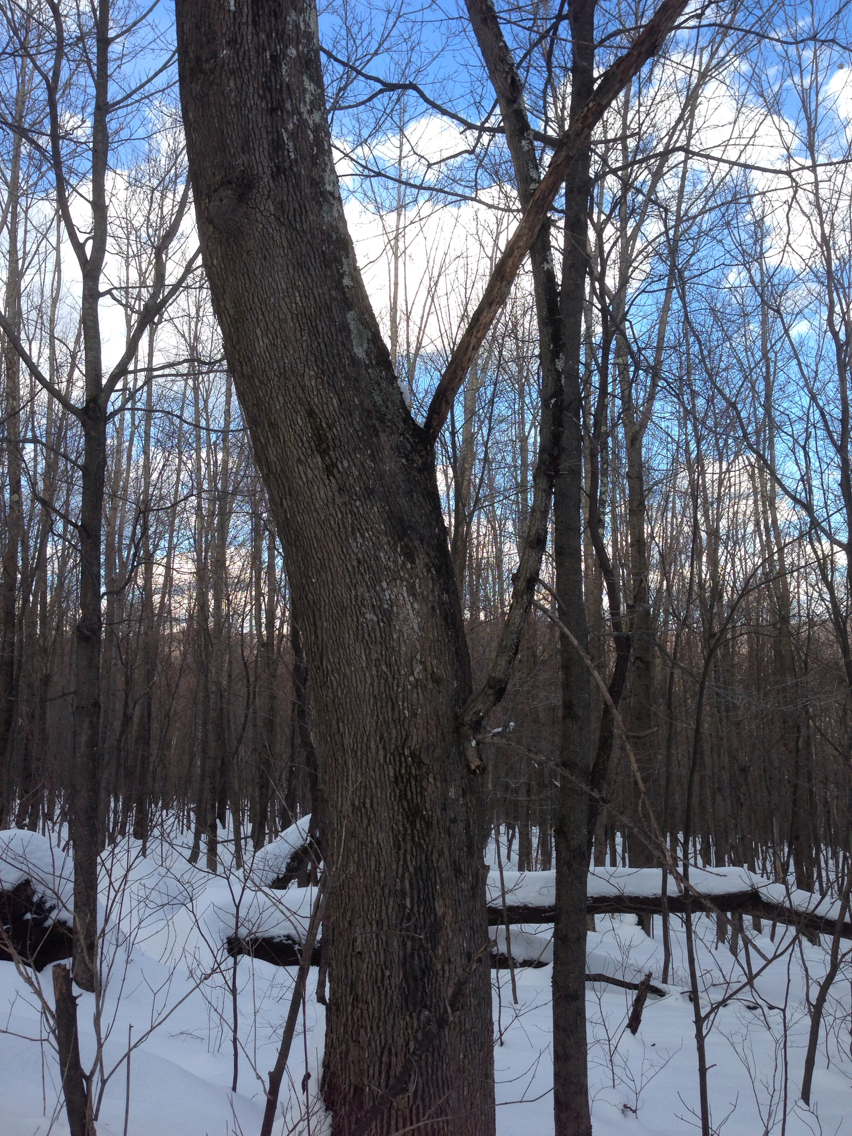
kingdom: Plantae
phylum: Tracheophyta
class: Magnoliopsida
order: Lamiales
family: Oleaceae
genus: Fraxinus
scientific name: Fraxinus americana
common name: White ash
